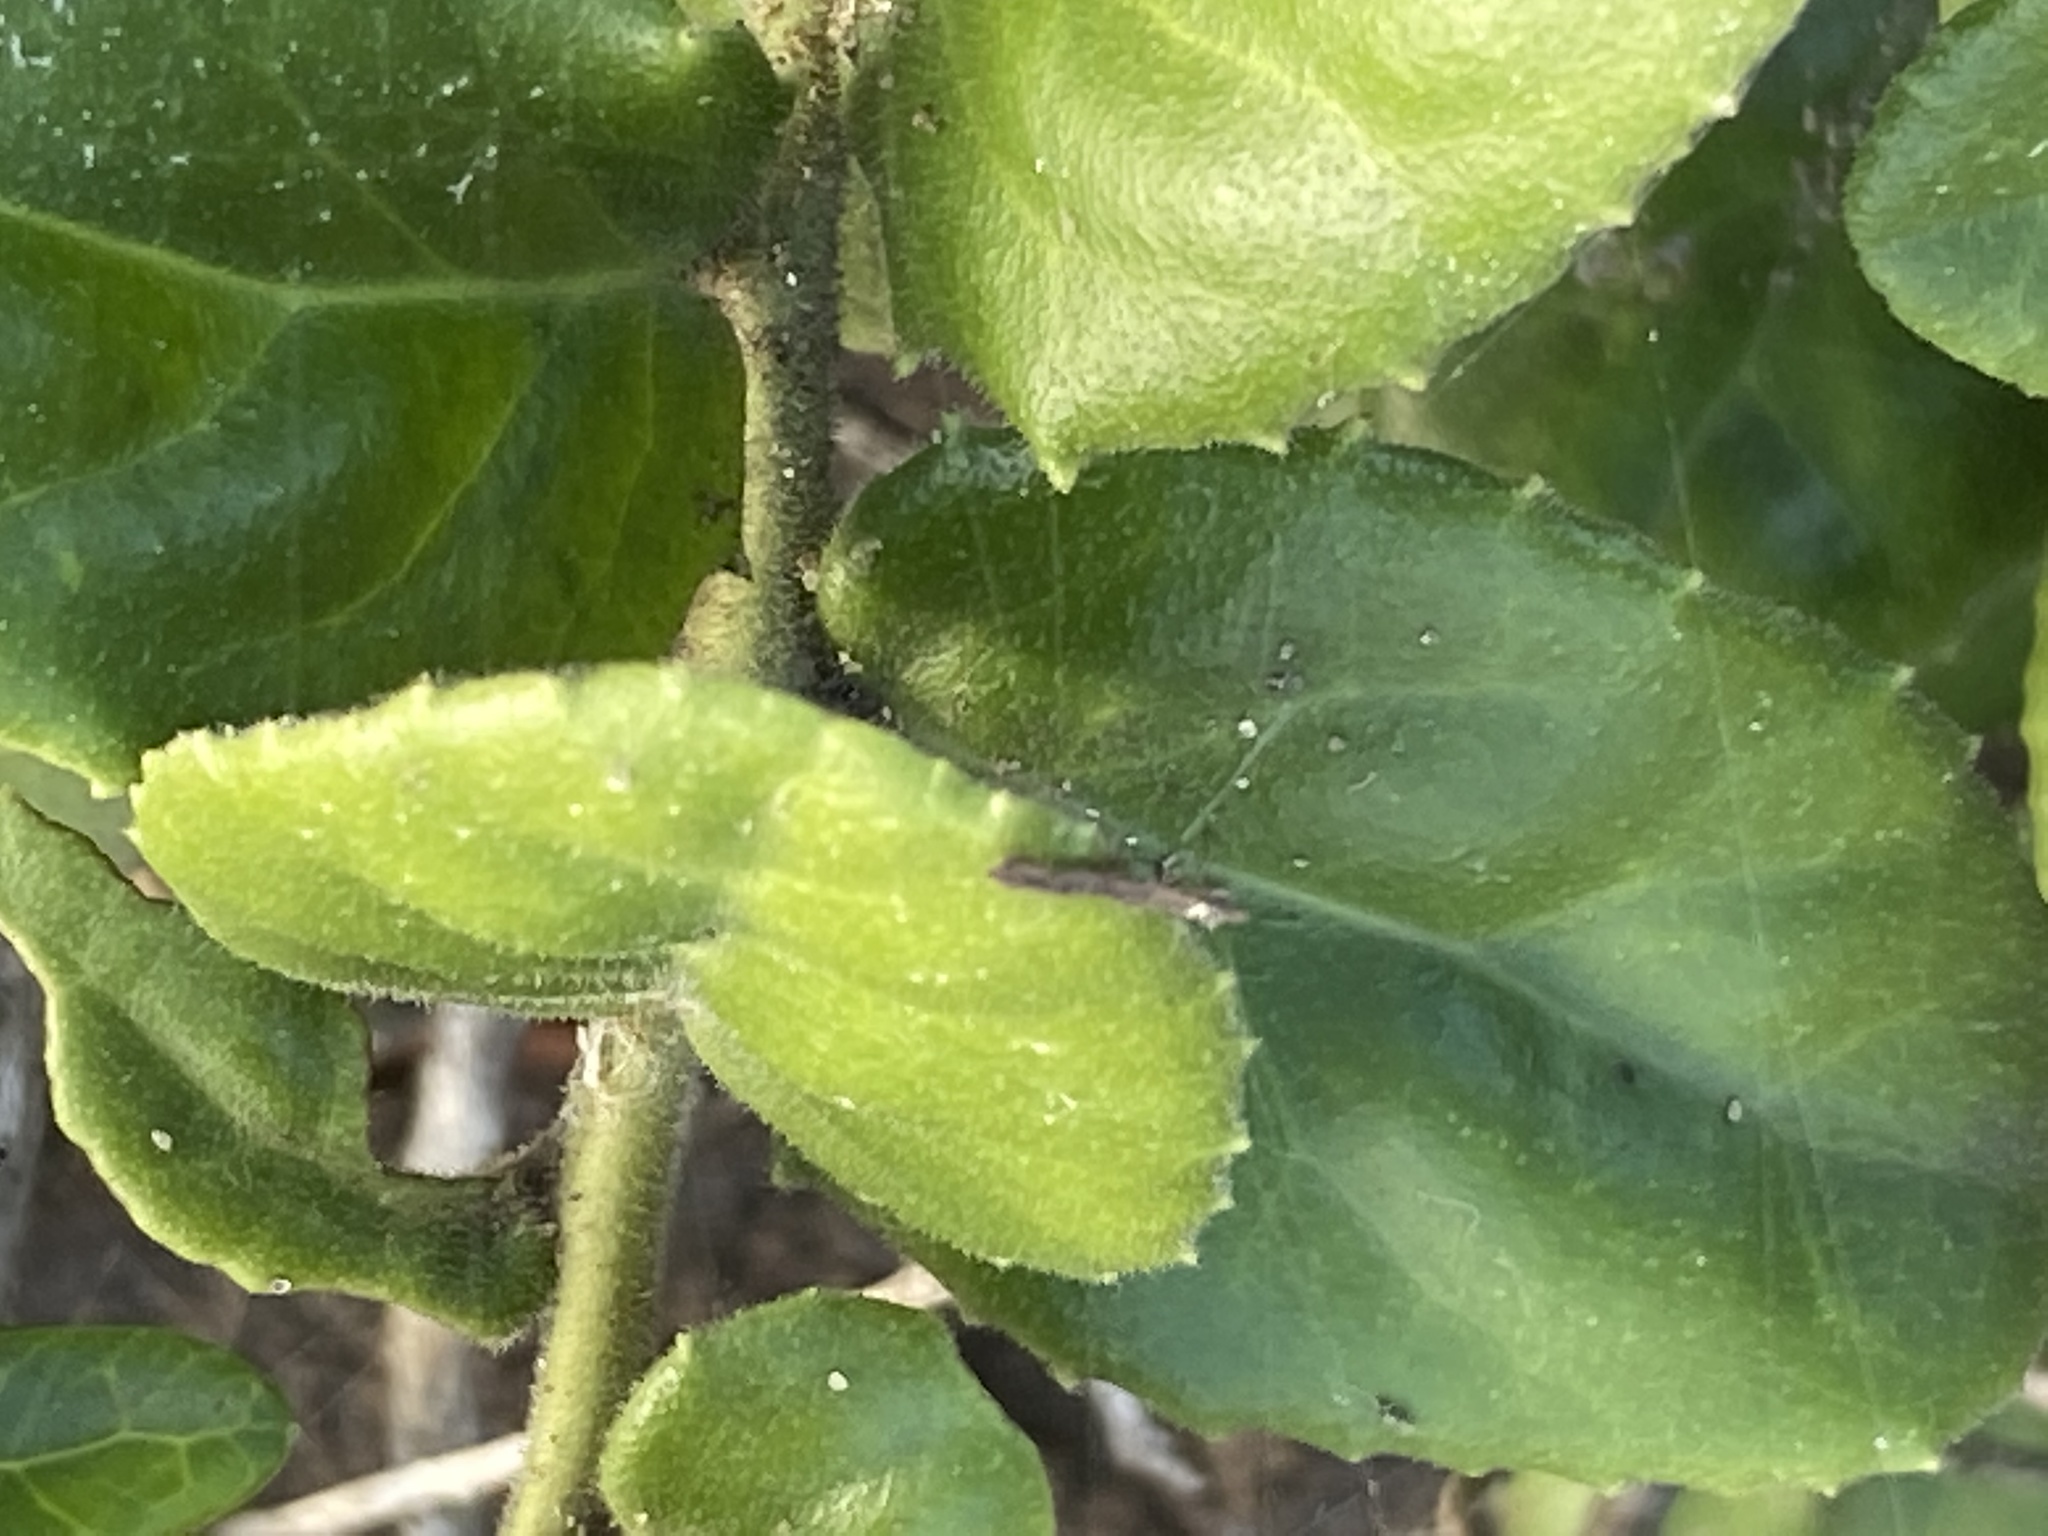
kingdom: Plantae
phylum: Tracheophyta
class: Magnoliopsida
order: Celastrales
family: Celastraceae
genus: Mystroxylon
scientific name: Mystroxylon aethiopicum
